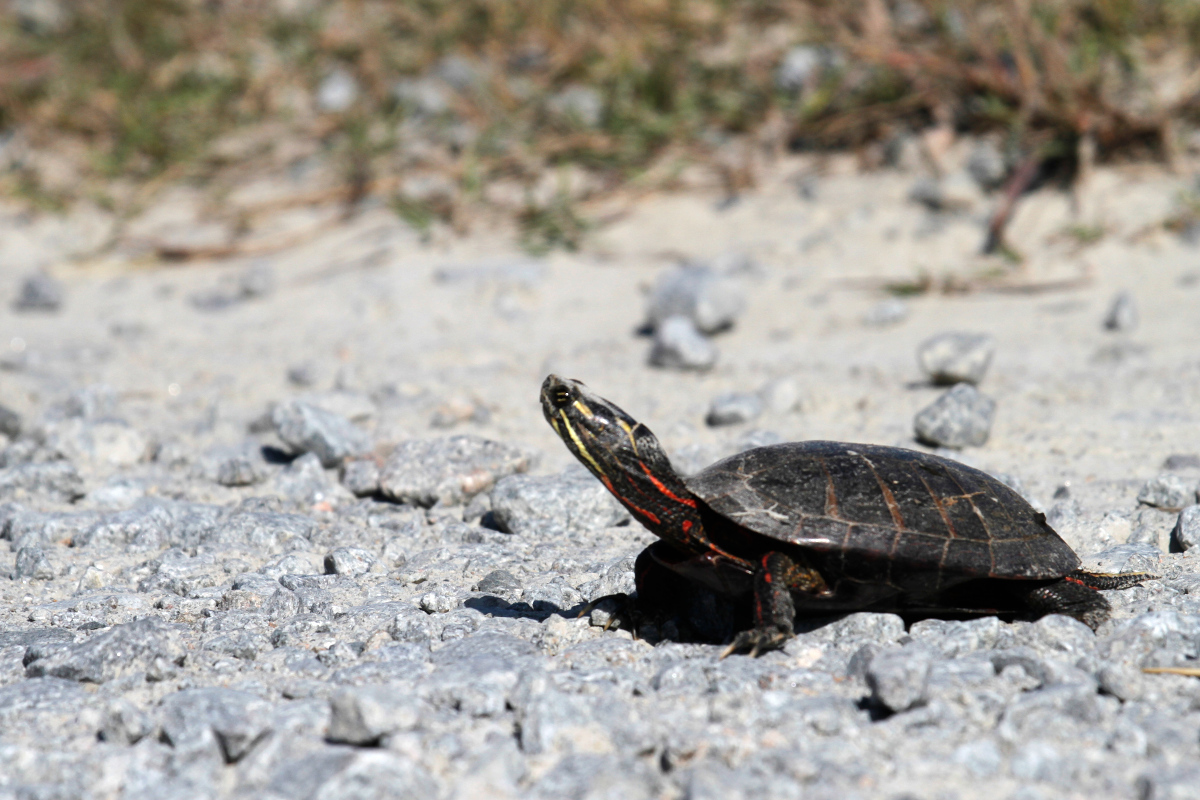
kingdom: Animalia
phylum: Chordata
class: Testudines
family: Emydidae
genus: Chrysemys
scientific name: Chrysemys picta
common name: Painted turtle
